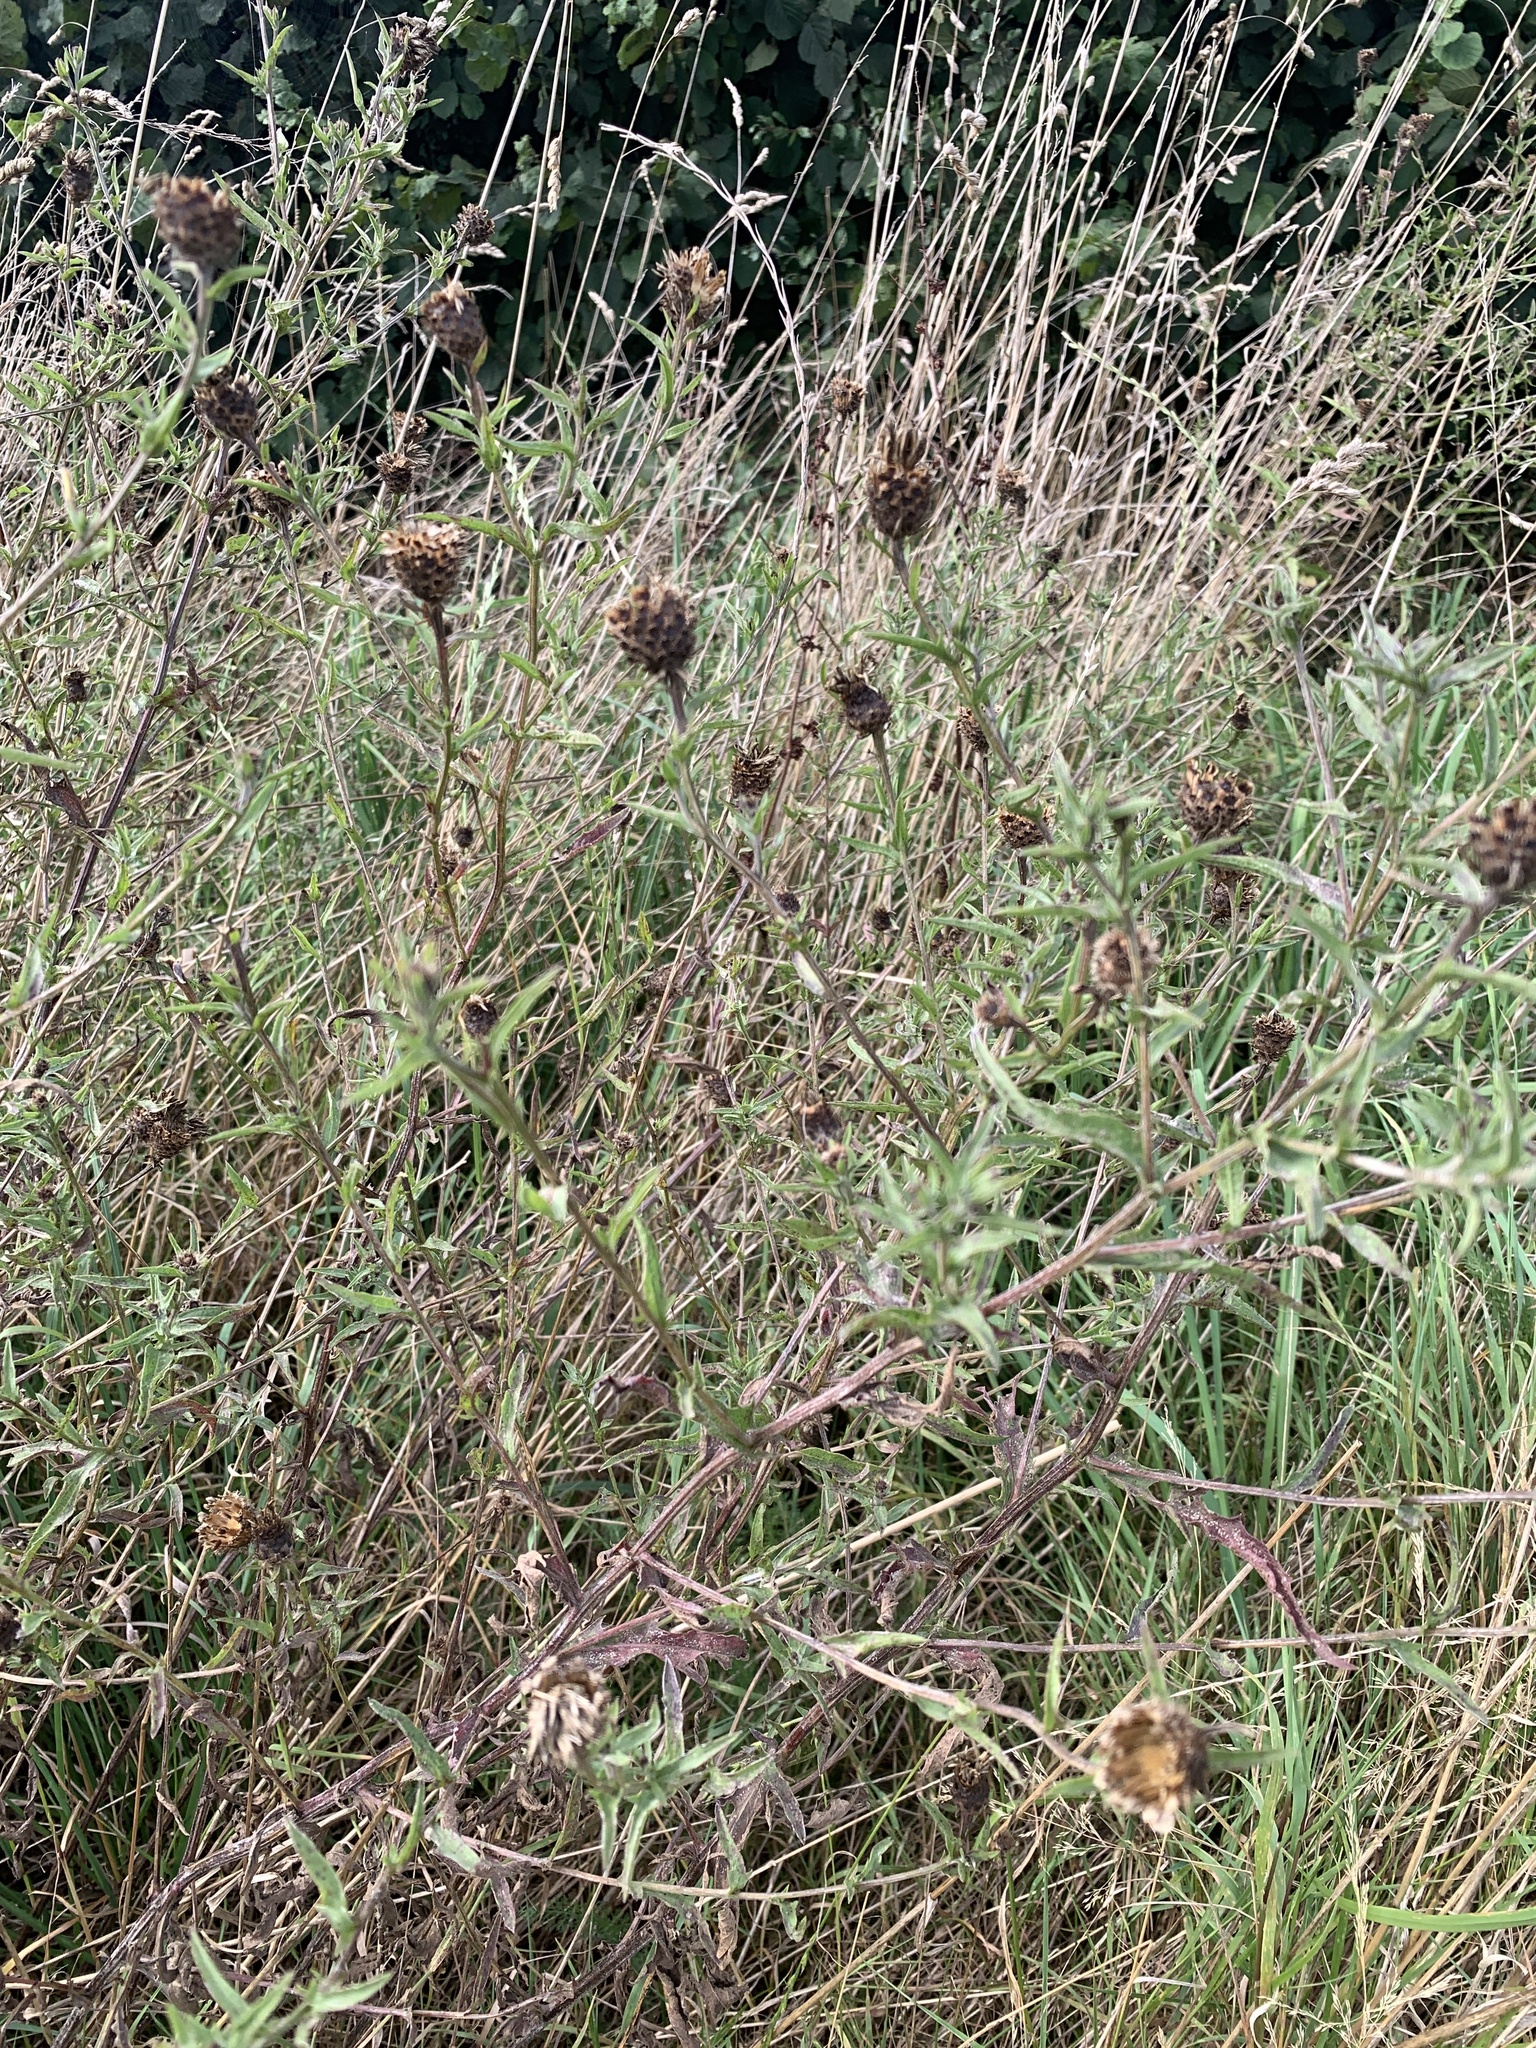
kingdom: Plantae
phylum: Tracheophyta
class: Magnoliopsida
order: Asterales
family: Asteraceae
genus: Centaurea
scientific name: Centaurea nigra
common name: Lesser knapweed
